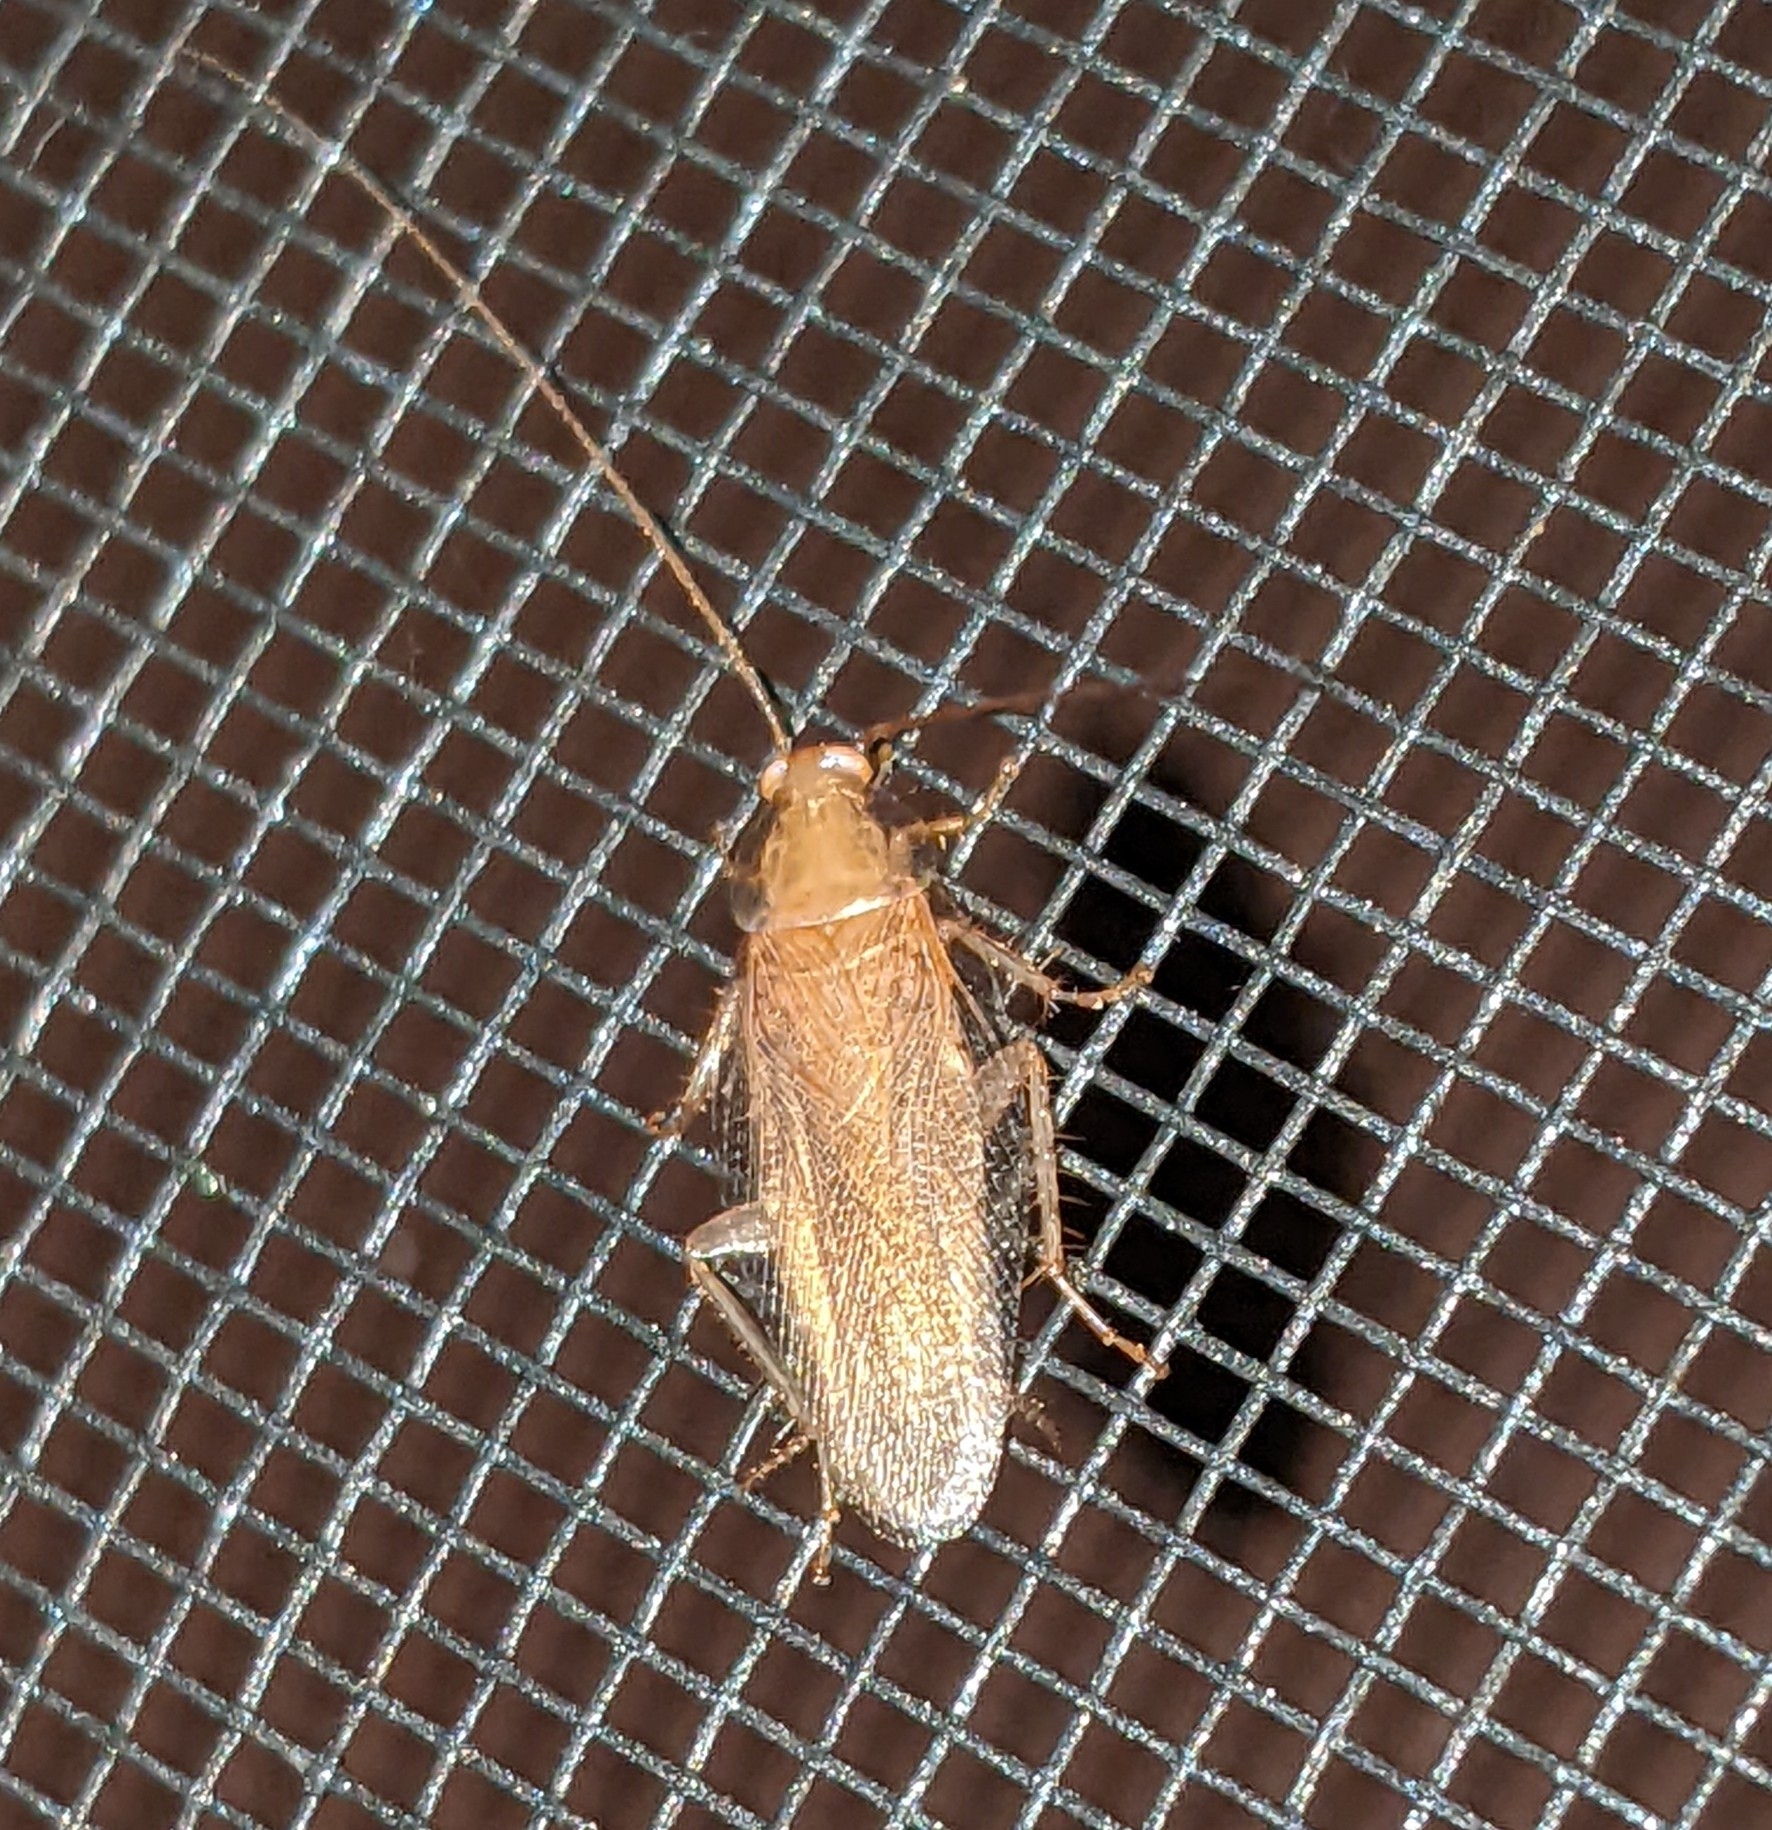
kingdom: Animalia
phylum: Arthropoda
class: Insecta
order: Blattodea
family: Ectobiidae
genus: Symploce
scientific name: Symploce pallens
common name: Smooth cockroach
